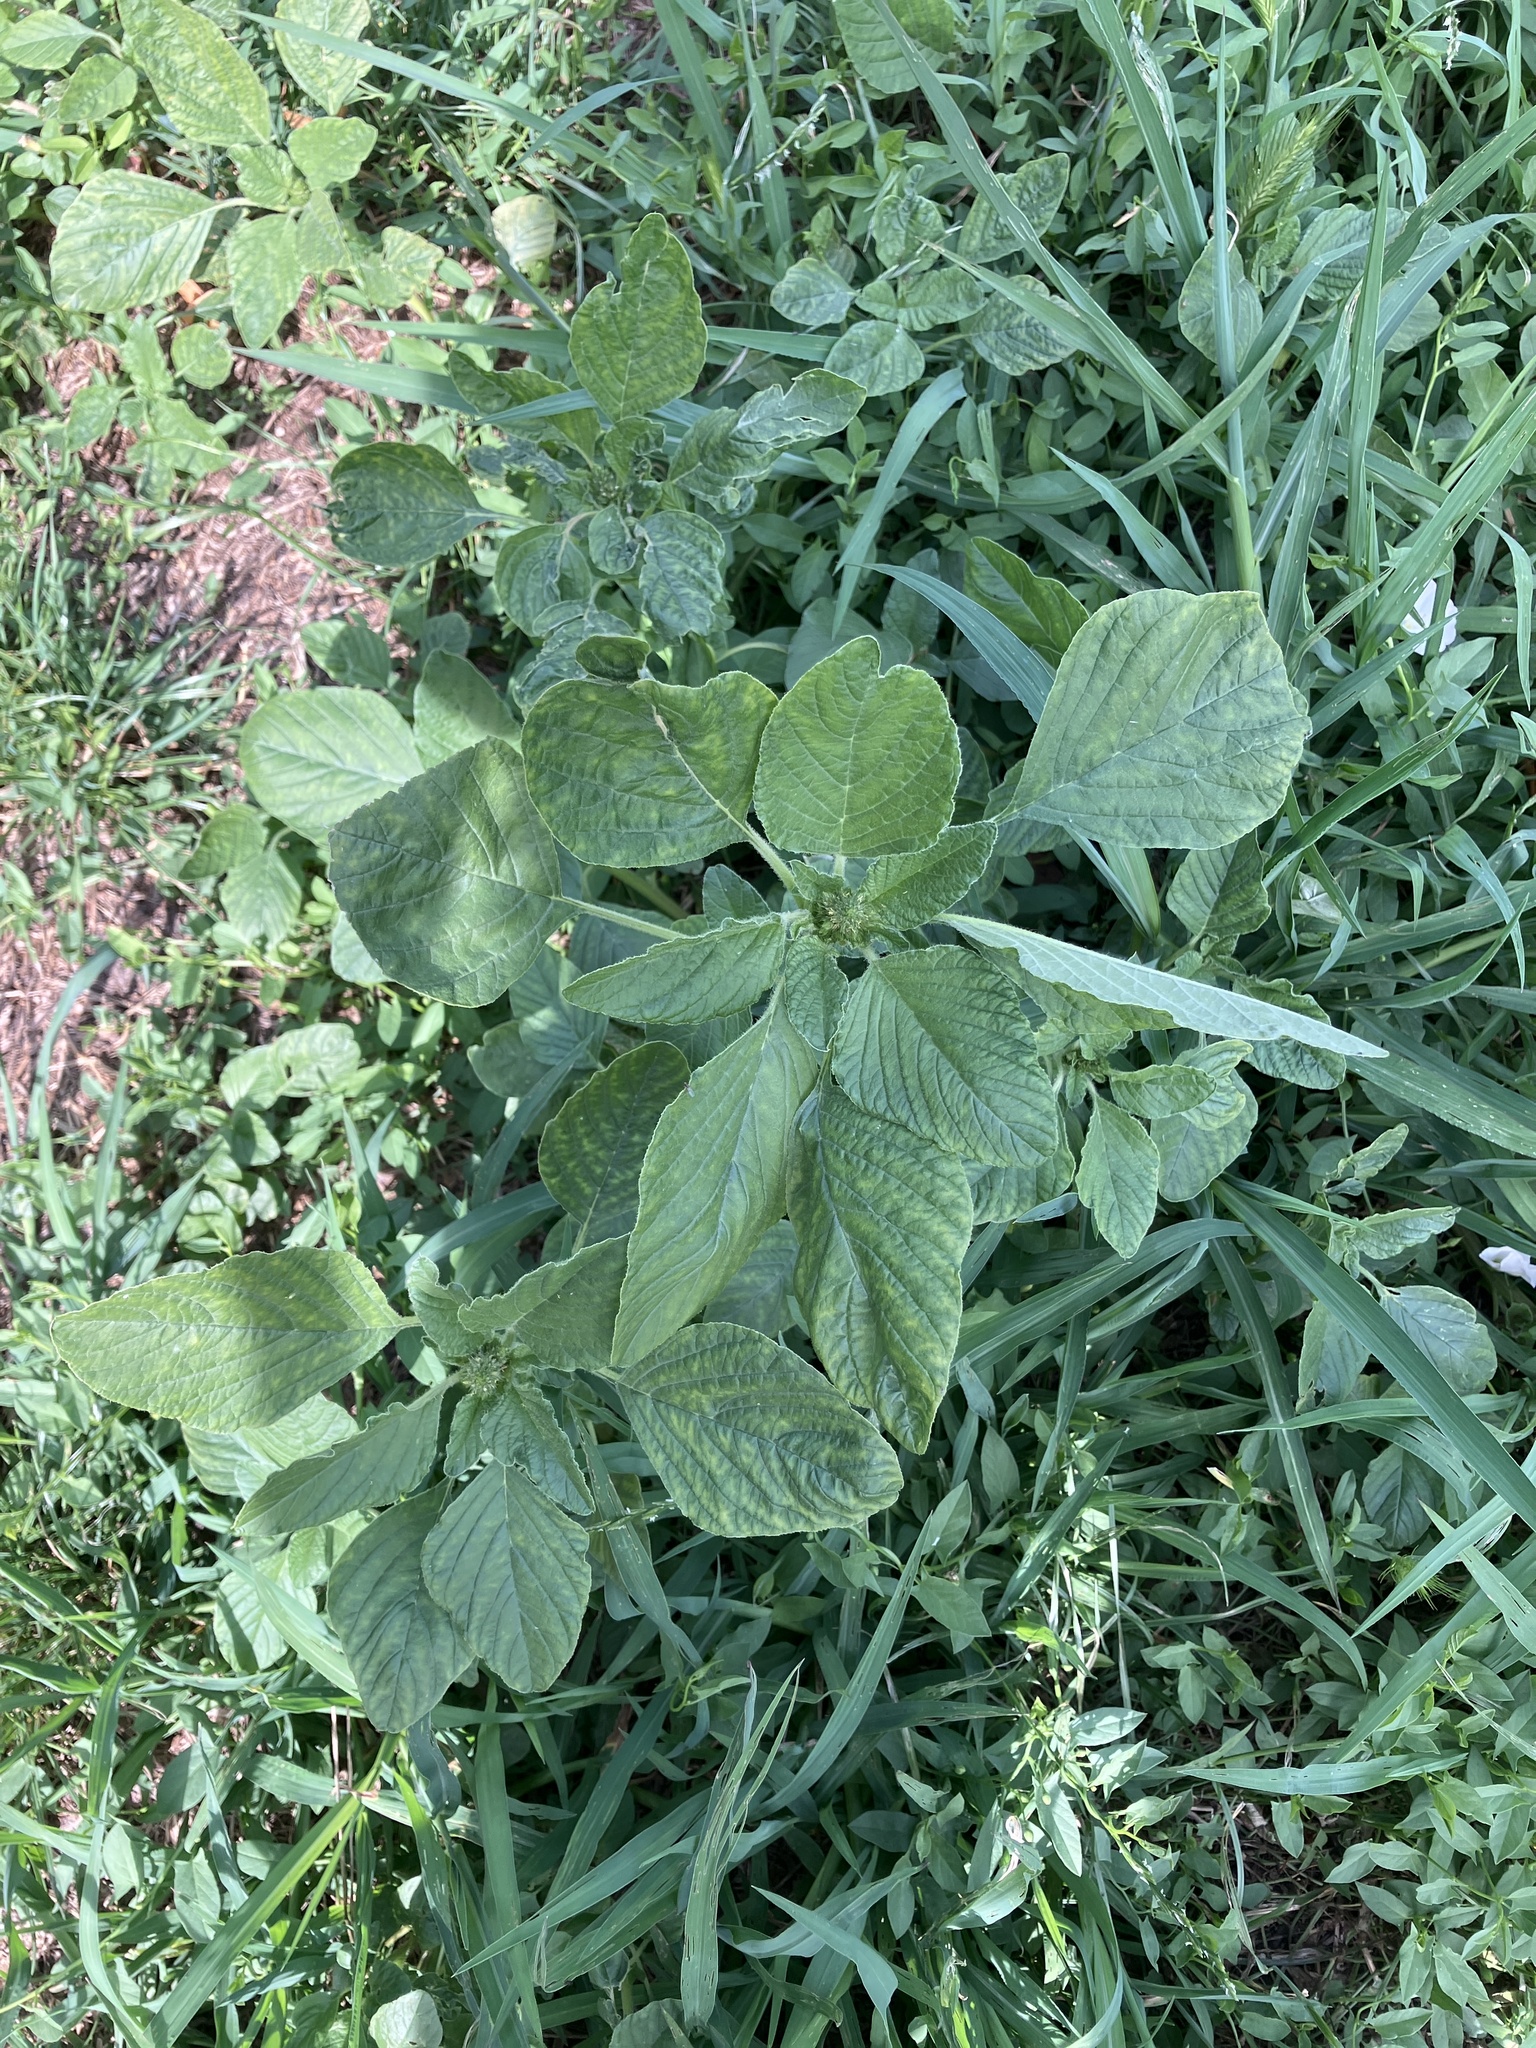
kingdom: Plantae
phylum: Tracheophyta
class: Magnoliopsida
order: Caryophyllales
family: Amaranthaceae
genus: Amaranthus
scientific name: Amaranthus retroflexus
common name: Redroot amaranth
